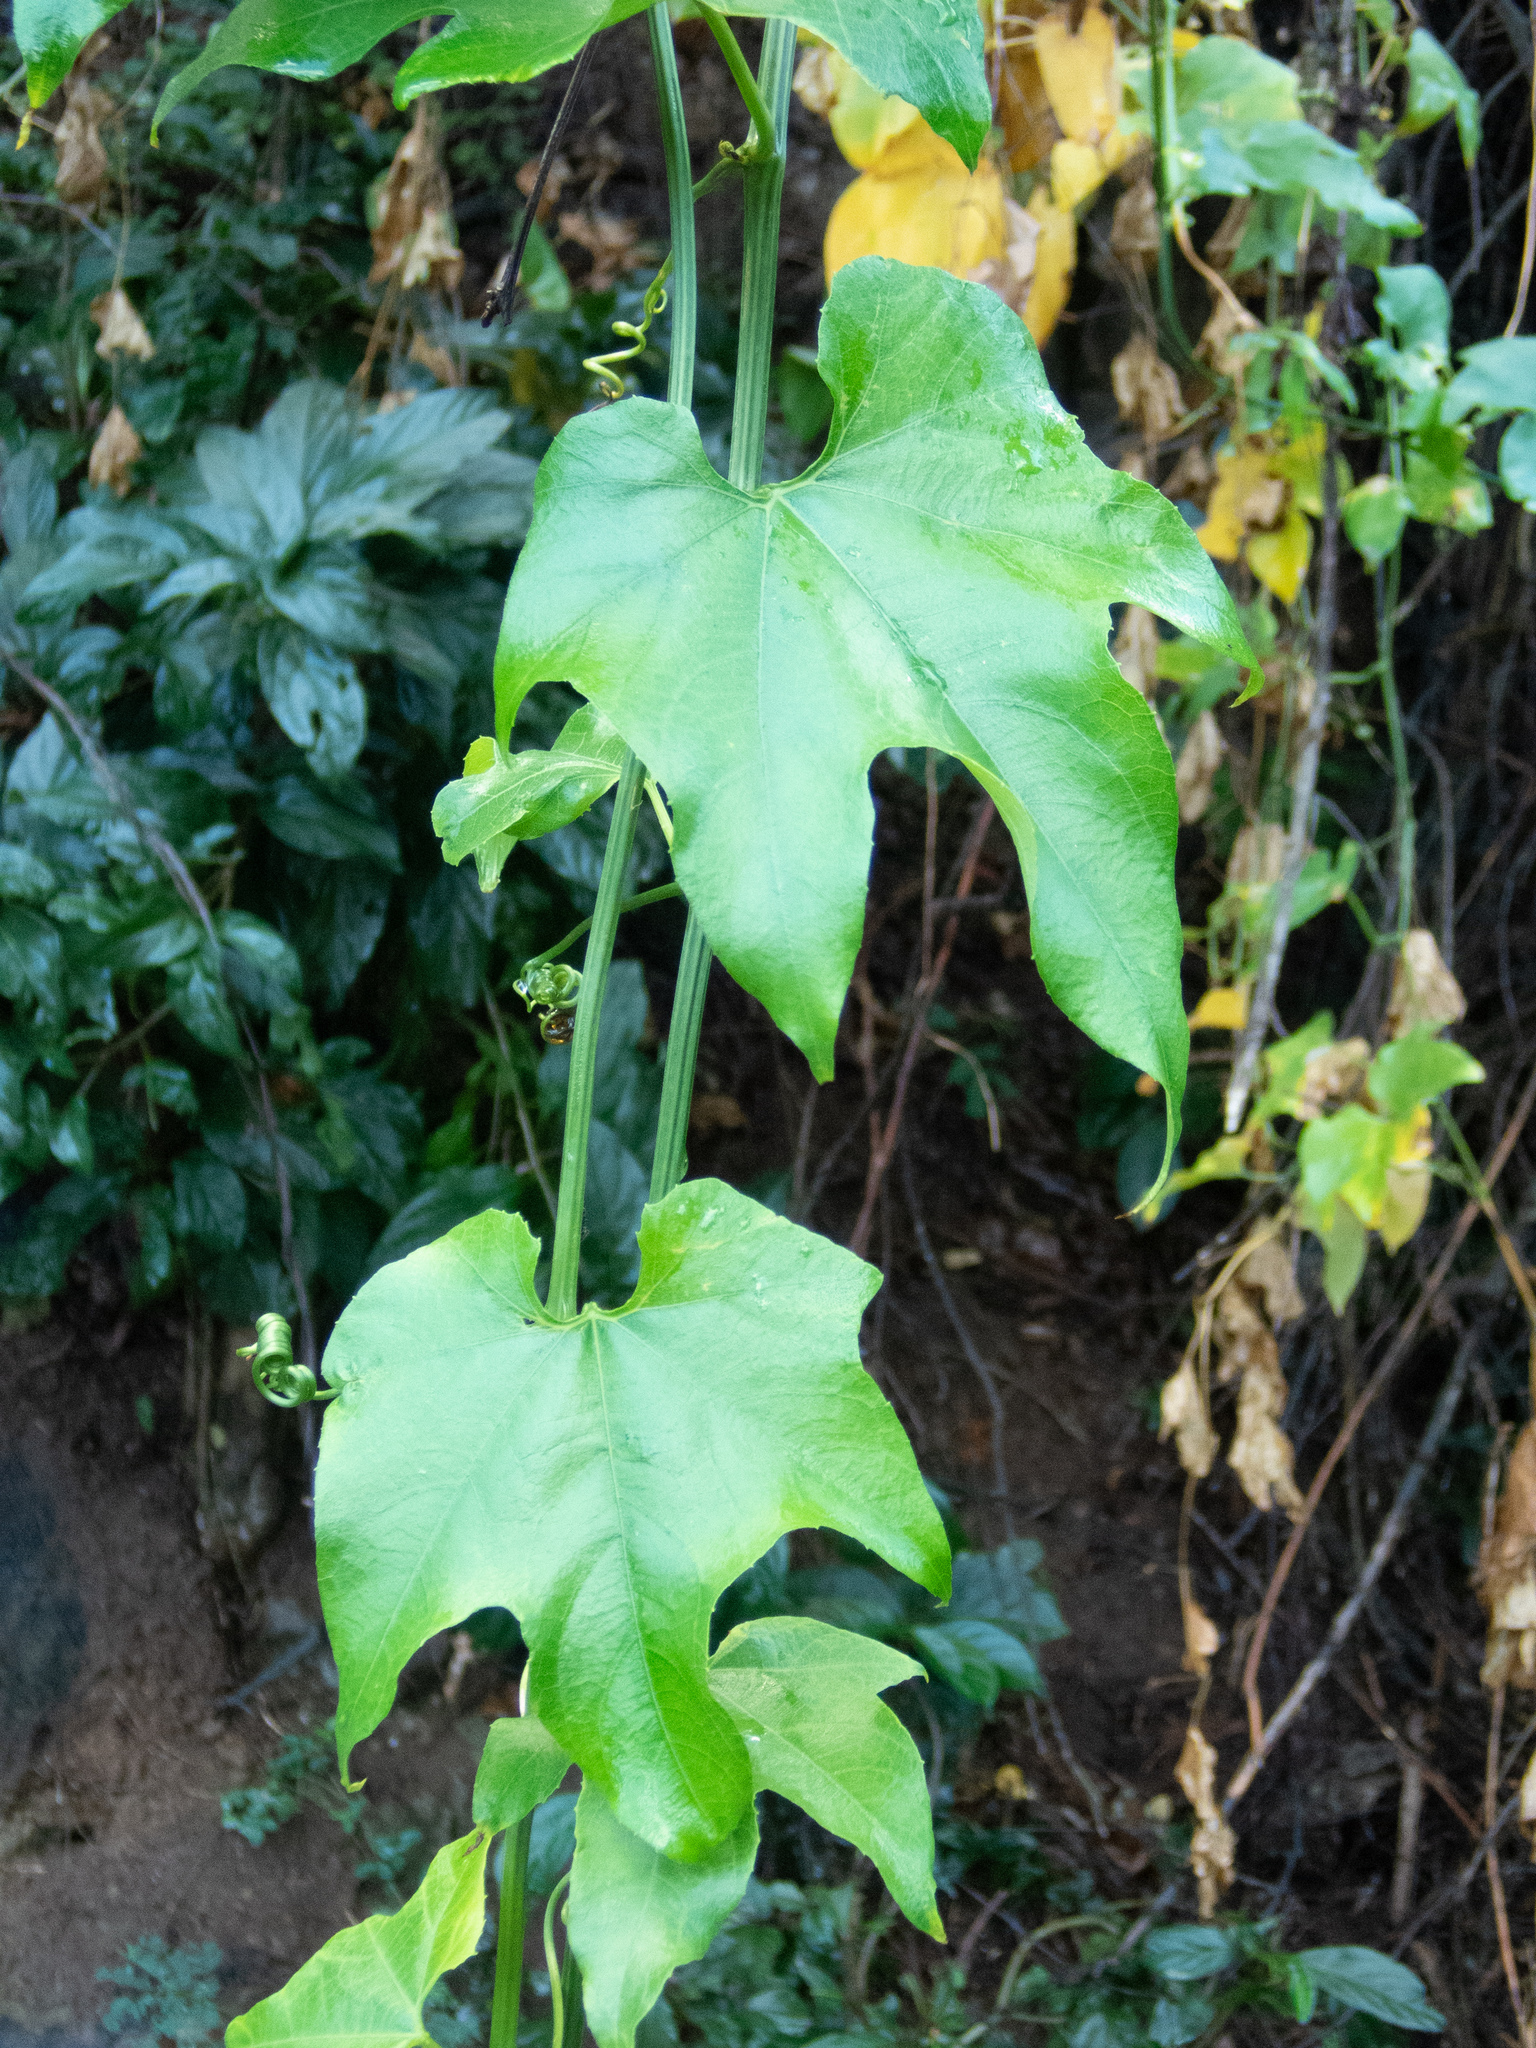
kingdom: Plantae
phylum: Tracheophyta
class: Magnoliopsida
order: Cucurbitales
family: Cucurbitaceae
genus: Coccinia
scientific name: Coccinia grandis
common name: Ivy gourd
